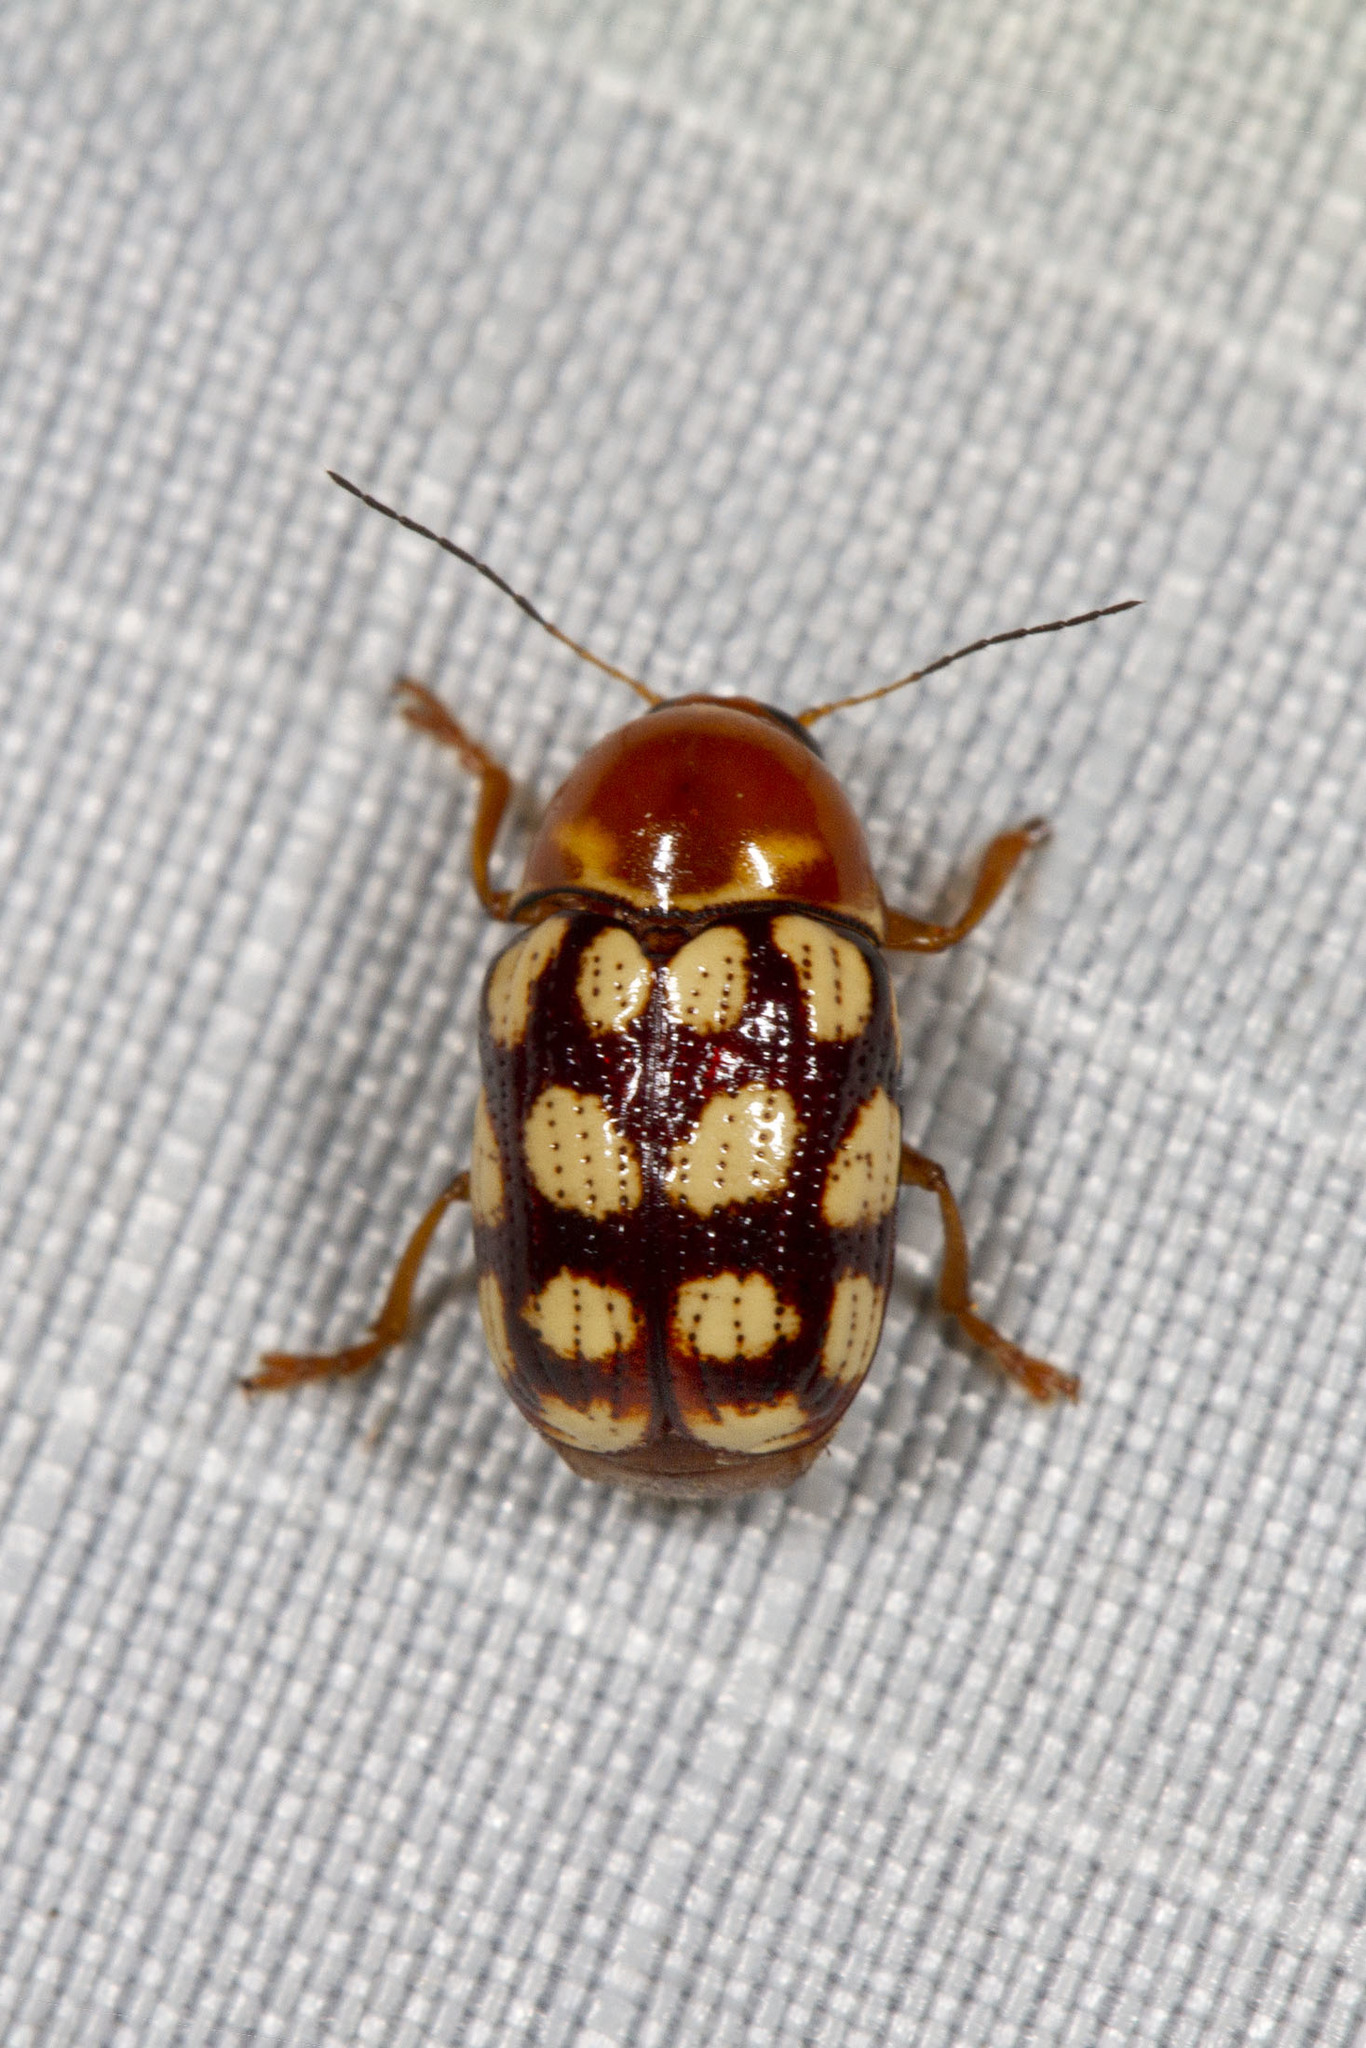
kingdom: Animalia
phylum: Arthropoda
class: Insecta
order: Coleoptera
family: Chrysomelidae
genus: Cryptocephalus
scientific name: Cryptocephalus guttulatus
